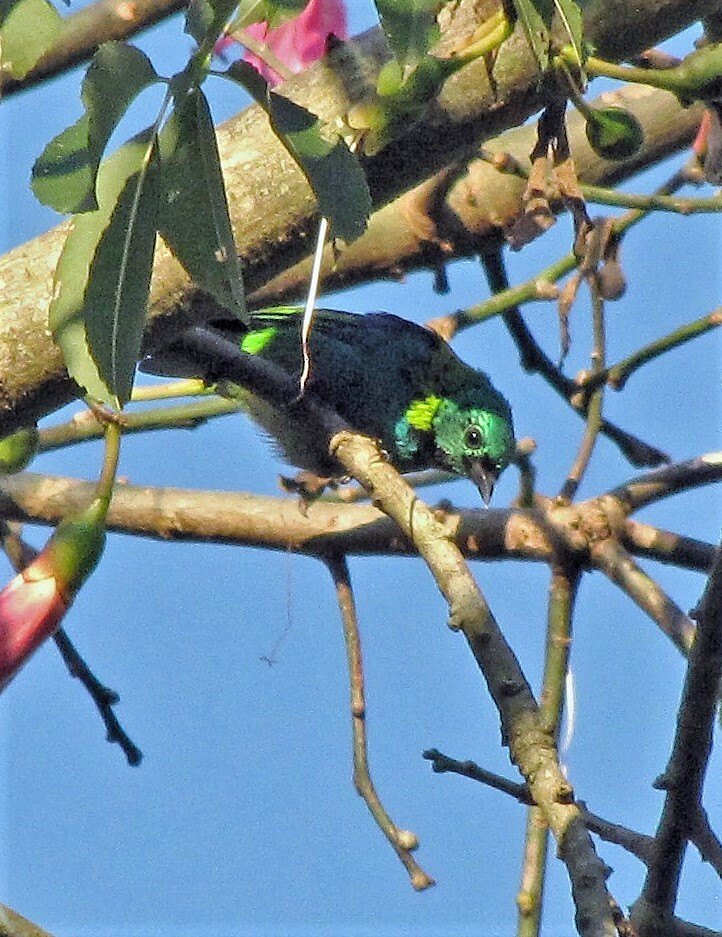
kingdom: Animalia
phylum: Chordata
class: Aves
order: Passeriformes
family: Thraupidae
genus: Tangara
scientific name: Tangara seledon
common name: Green-headed tanager
